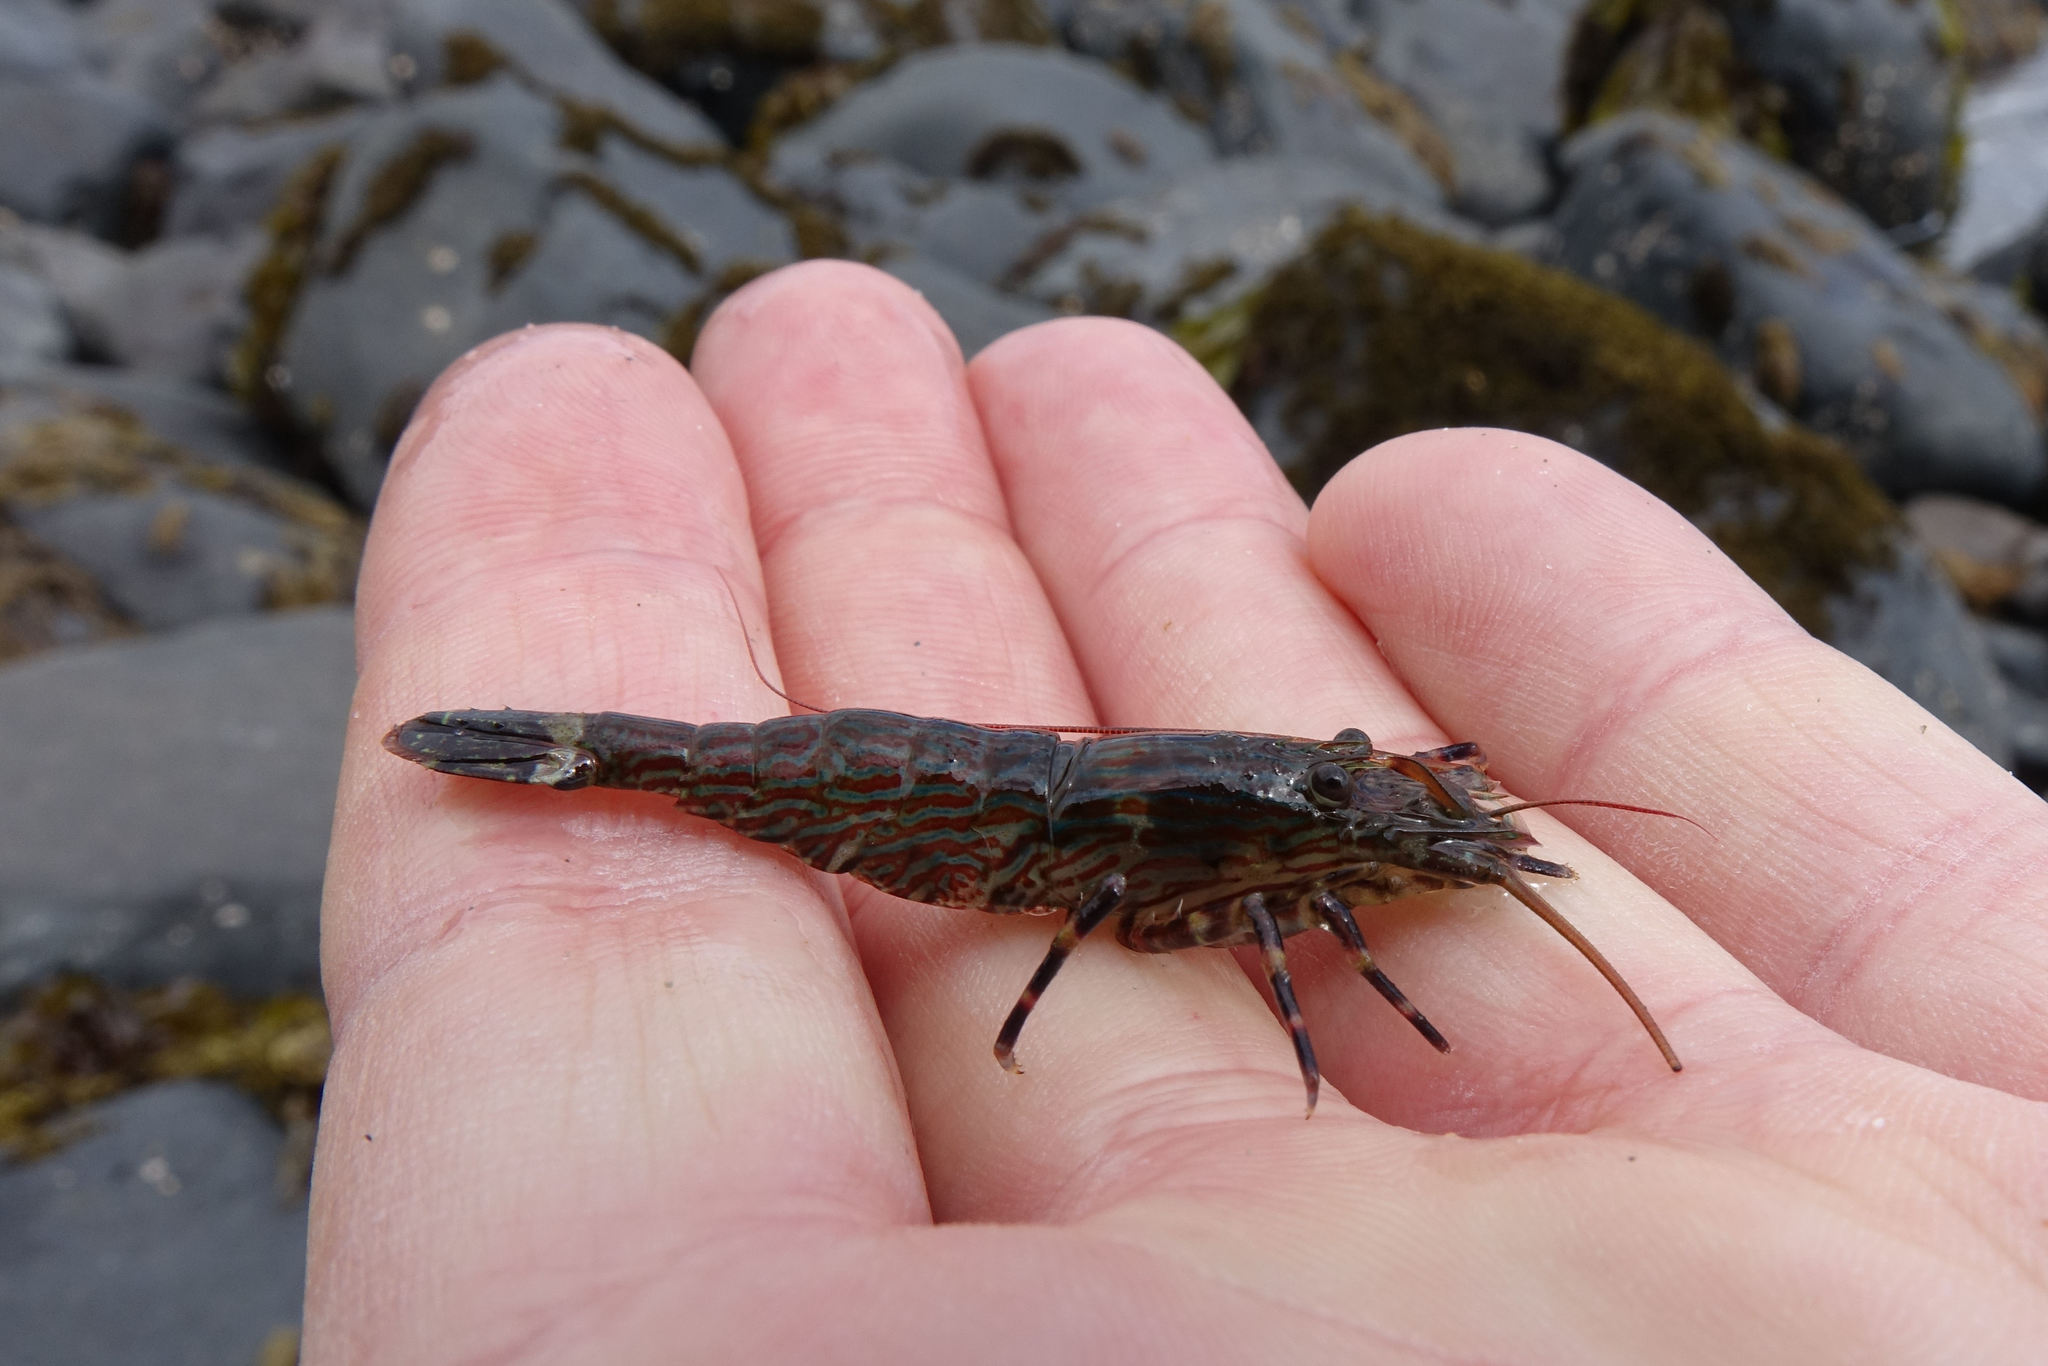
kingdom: Animalia
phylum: Arthropoda
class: Malacostraca
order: Decapoda
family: Hippolytidae
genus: Alope
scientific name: Alope spinifrons
